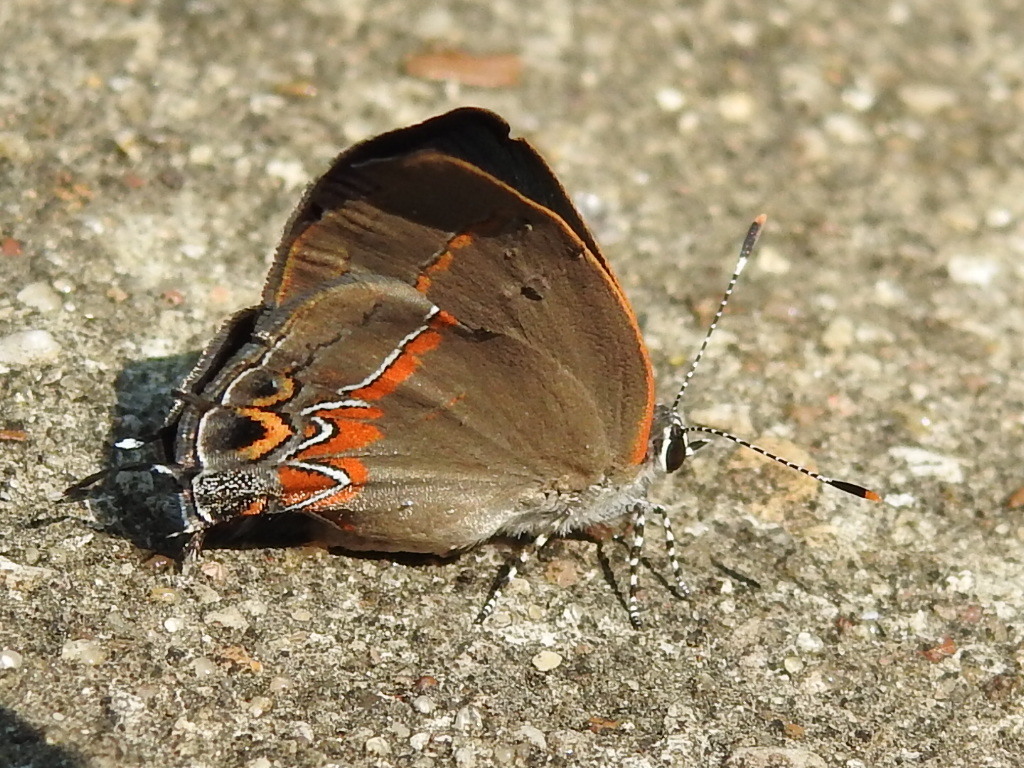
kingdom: Animalia
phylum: Arthropoda
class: Insecta
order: Lepidoptera
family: Lycaenidae
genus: Calycopis
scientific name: Calycopis cecrops
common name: Red-banded hairstreak
